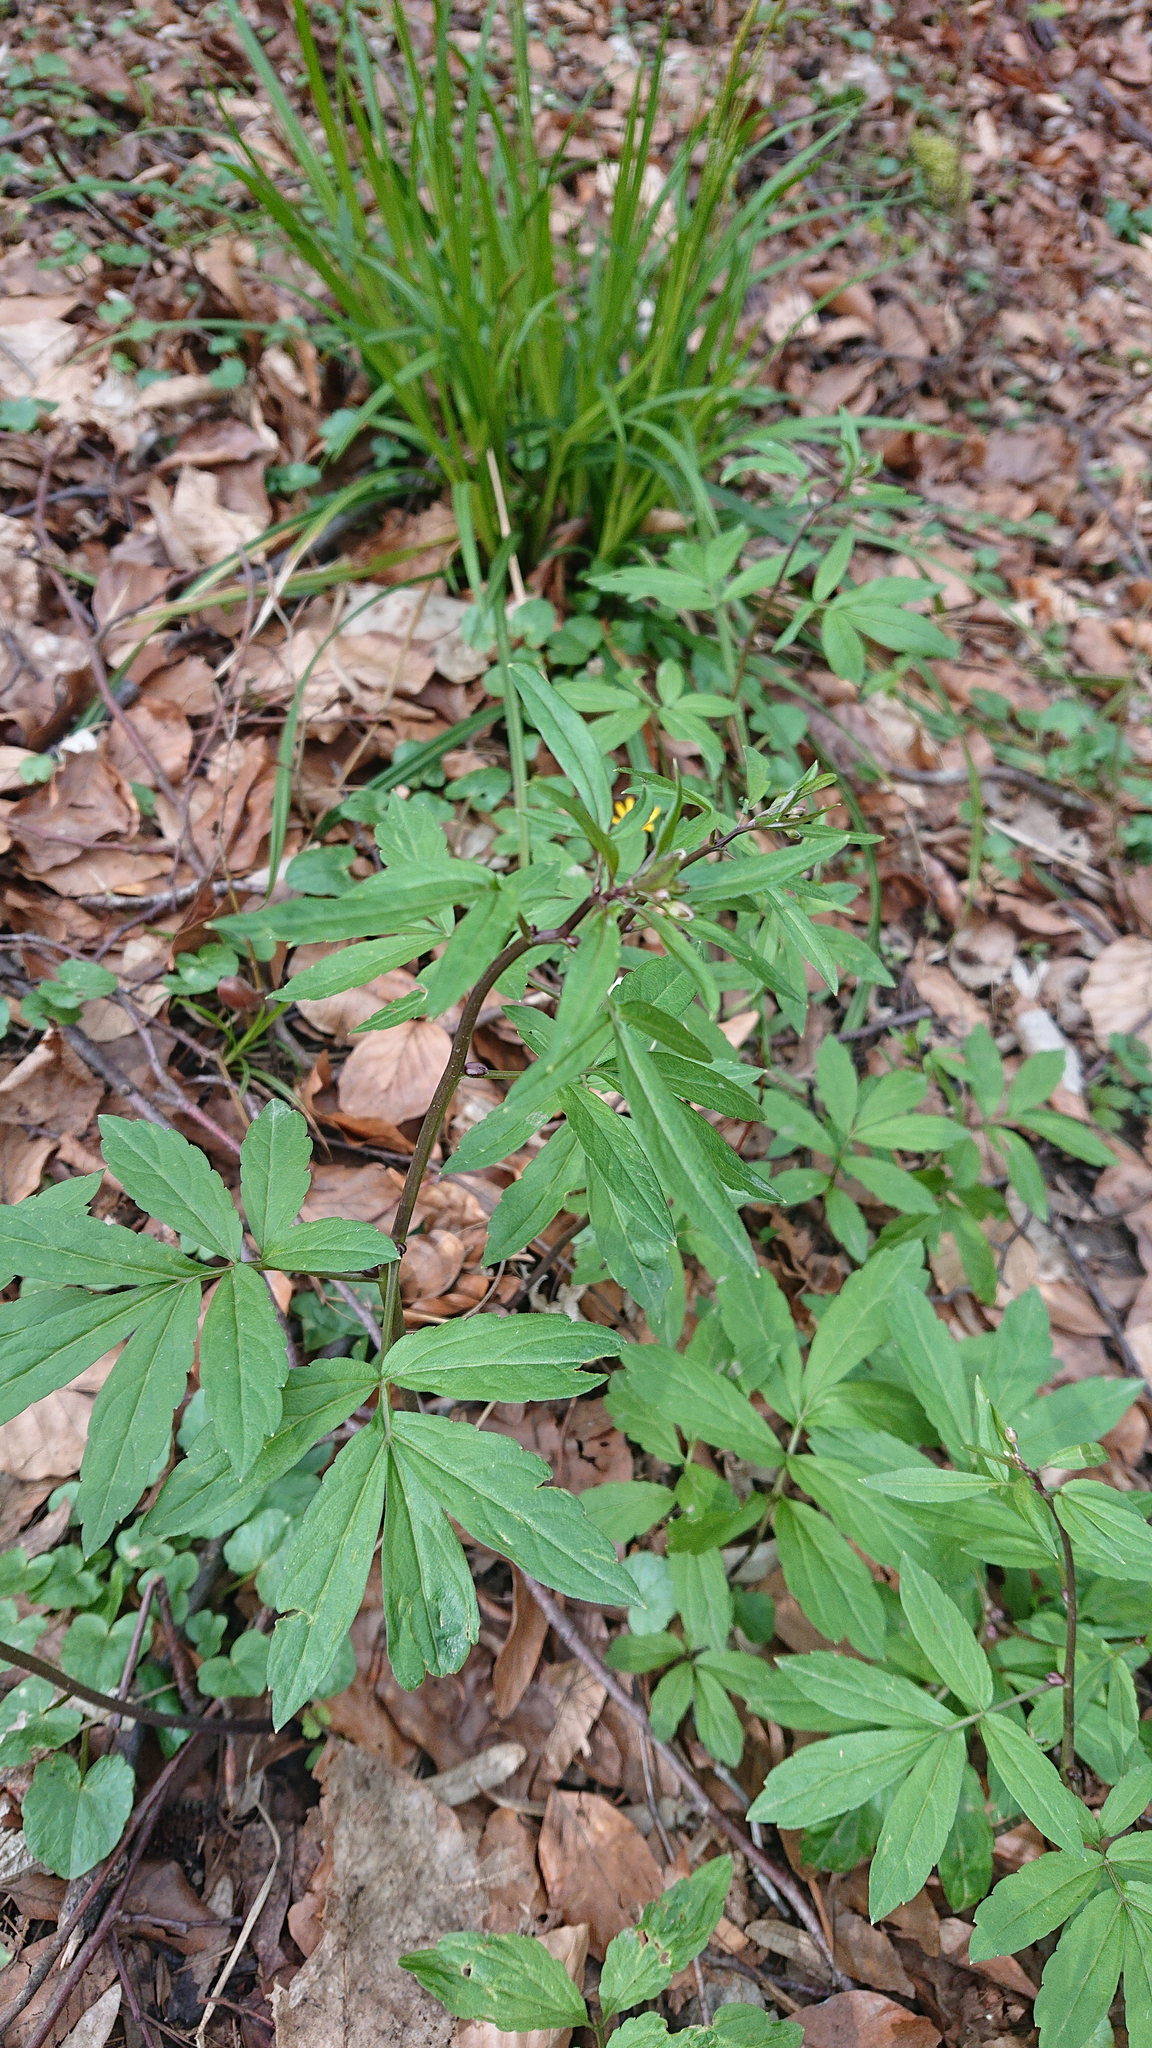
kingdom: Plantae
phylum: Tracheophyta
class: Magnoliopsida
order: Brassicales
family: Brassicaceae
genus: Cardamine
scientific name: Cardamine bulbifera
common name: Coralroot bittercress
